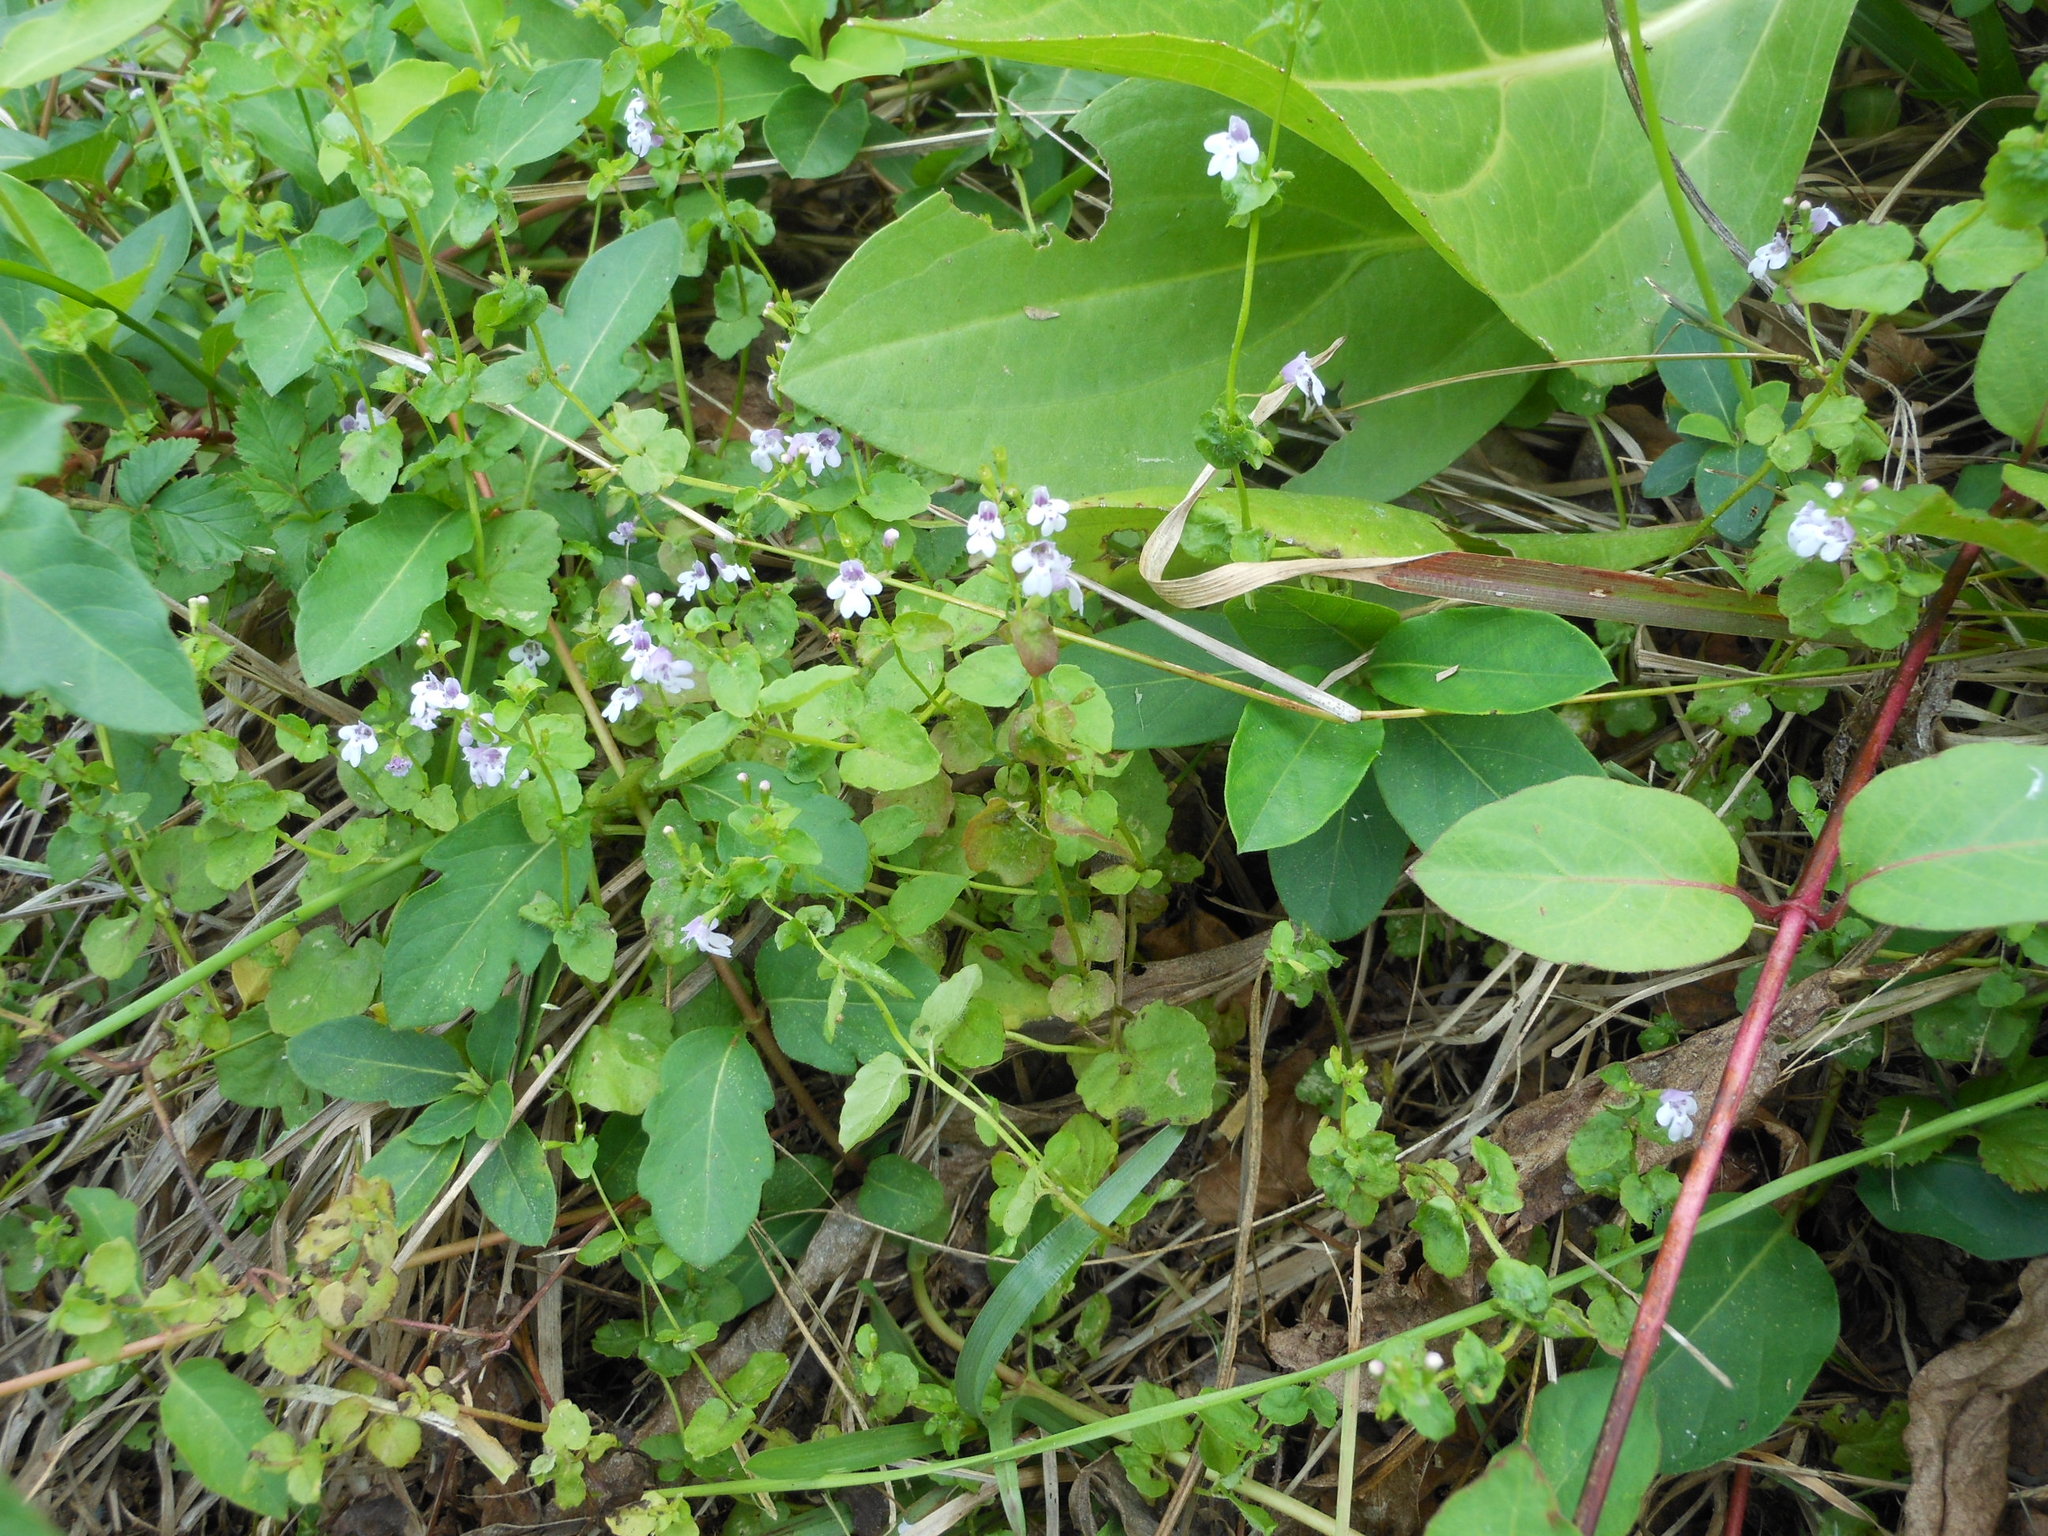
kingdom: Plantae
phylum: Tracheophyta
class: Magnoliopsida
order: Lamiales
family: Lamiaceae
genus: Clinopodium
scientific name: Clinopodium brownei
